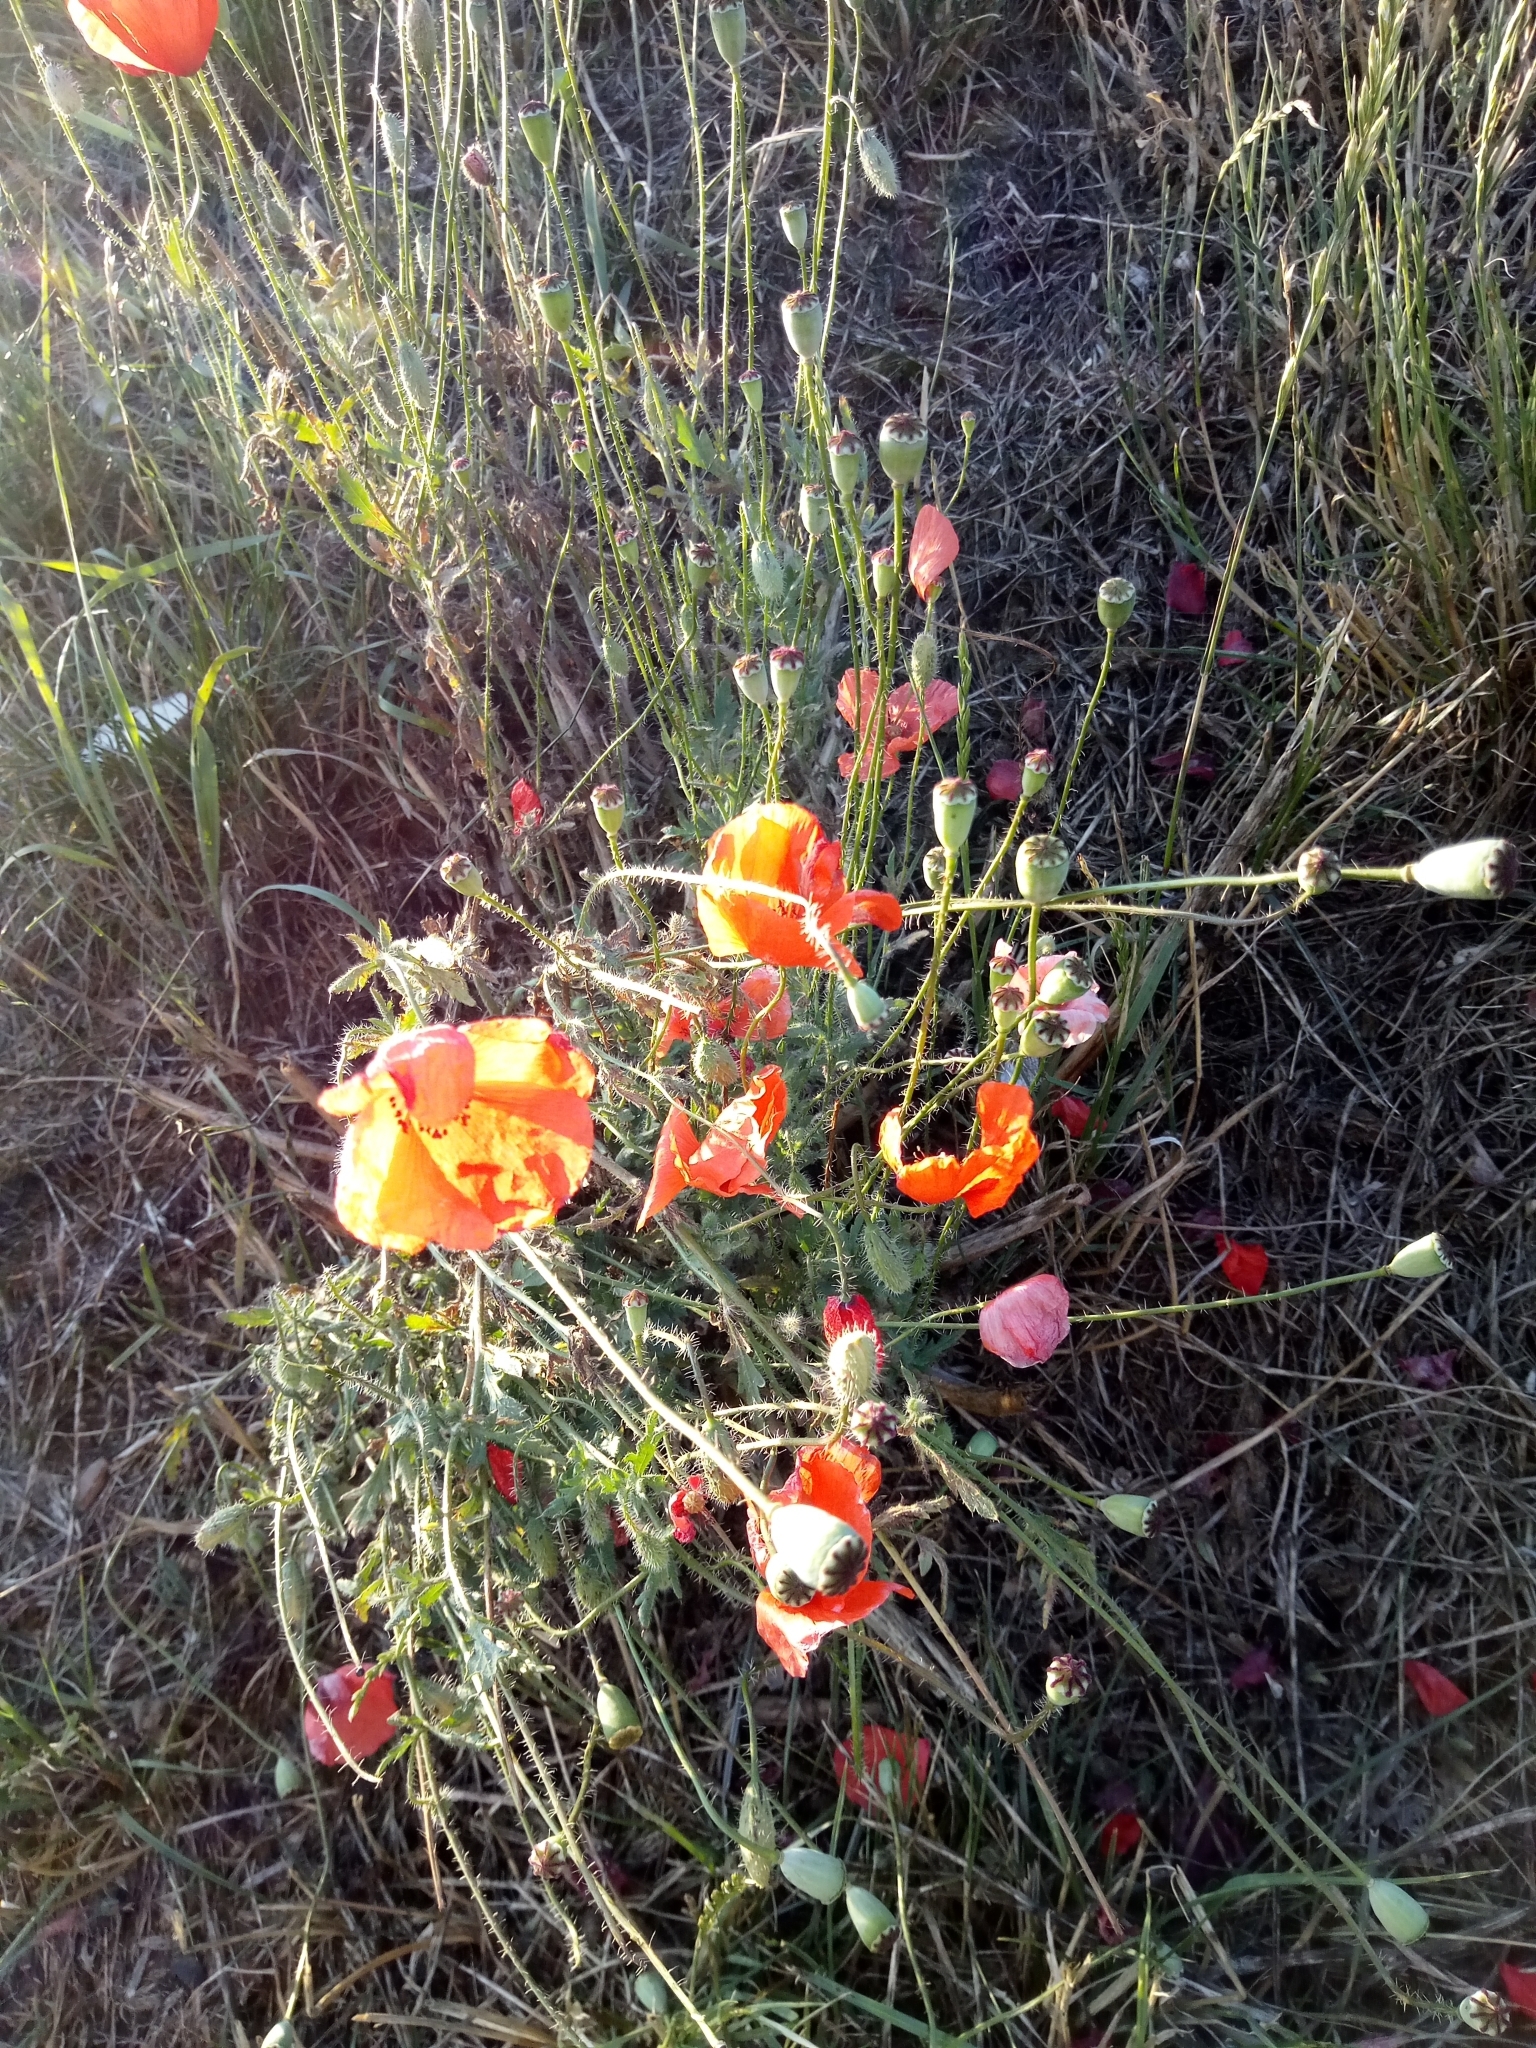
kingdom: Plantae
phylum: Tracheophyta
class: Magnoliopsida
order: Ranunculales
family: Papaveraceae
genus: Papaver
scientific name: Papaver rhoeas
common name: Corn poppy
